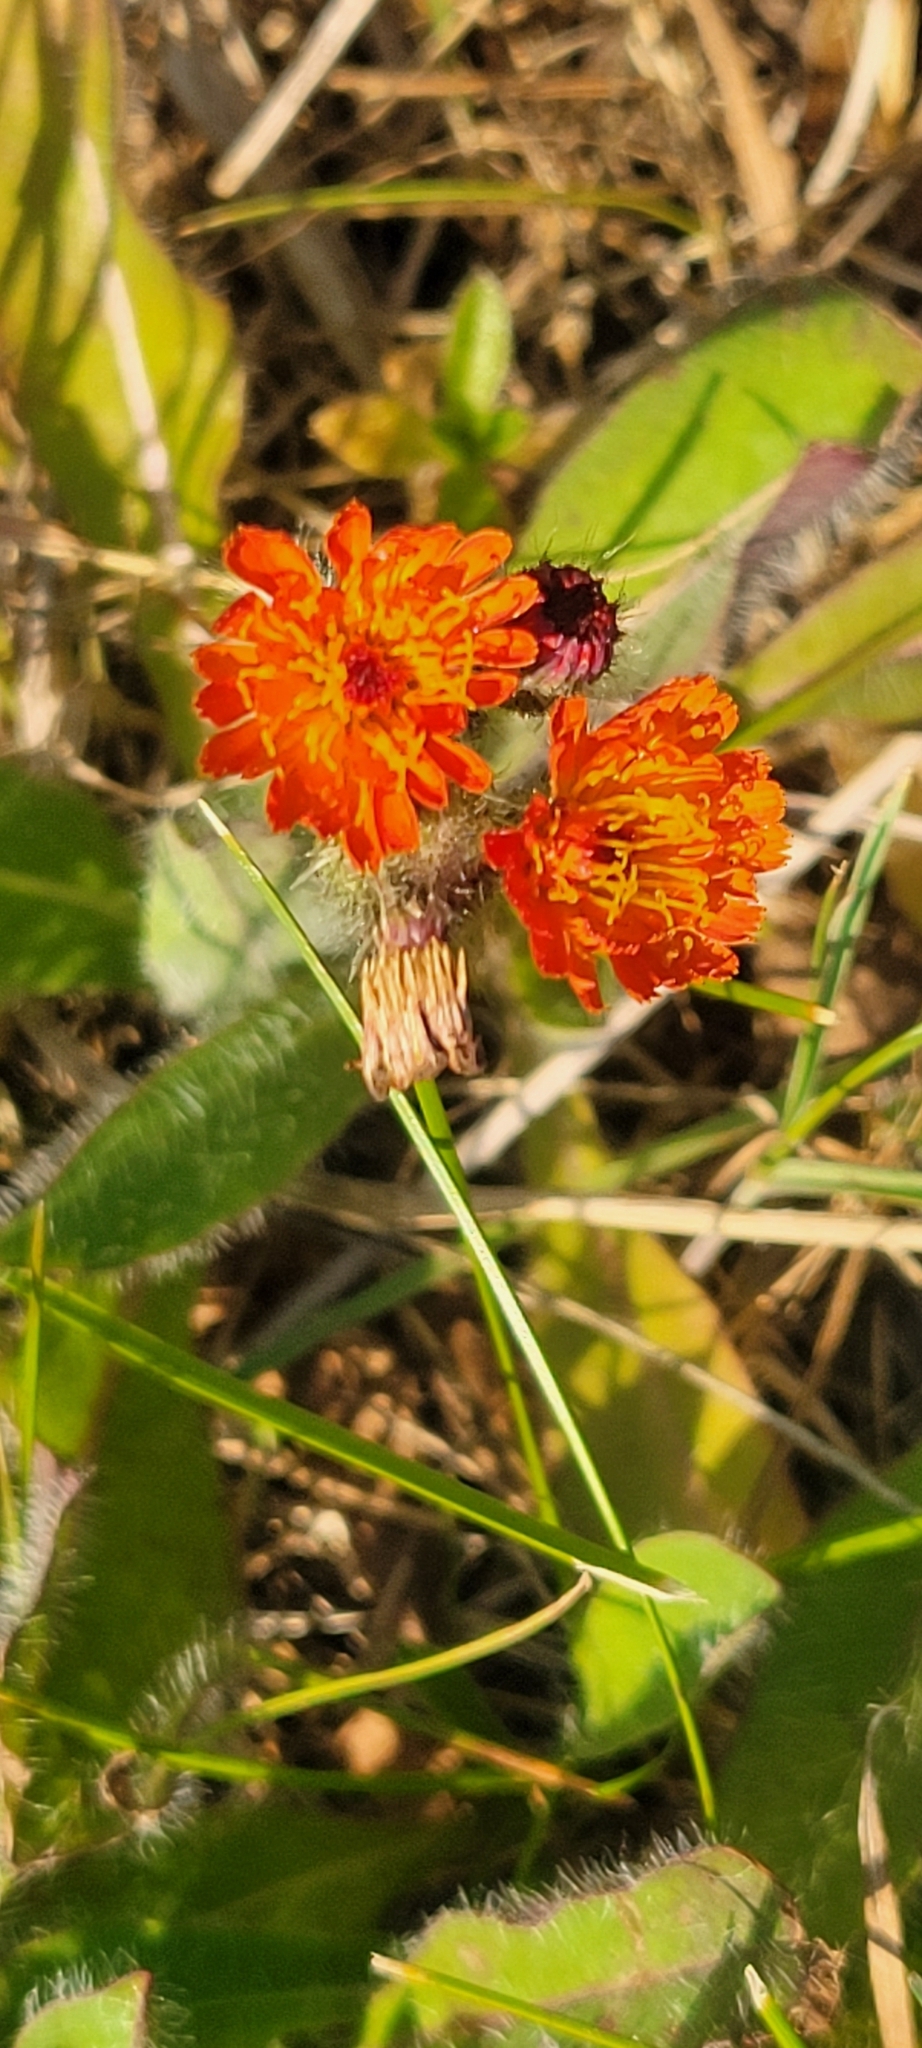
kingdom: Plantae
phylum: Tracheophyta
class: Magnoliopsida
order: Asterales
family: Asteraceae
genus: Pilosella
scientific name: Pilosella aurantiaca
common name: Fox-and-cubs
